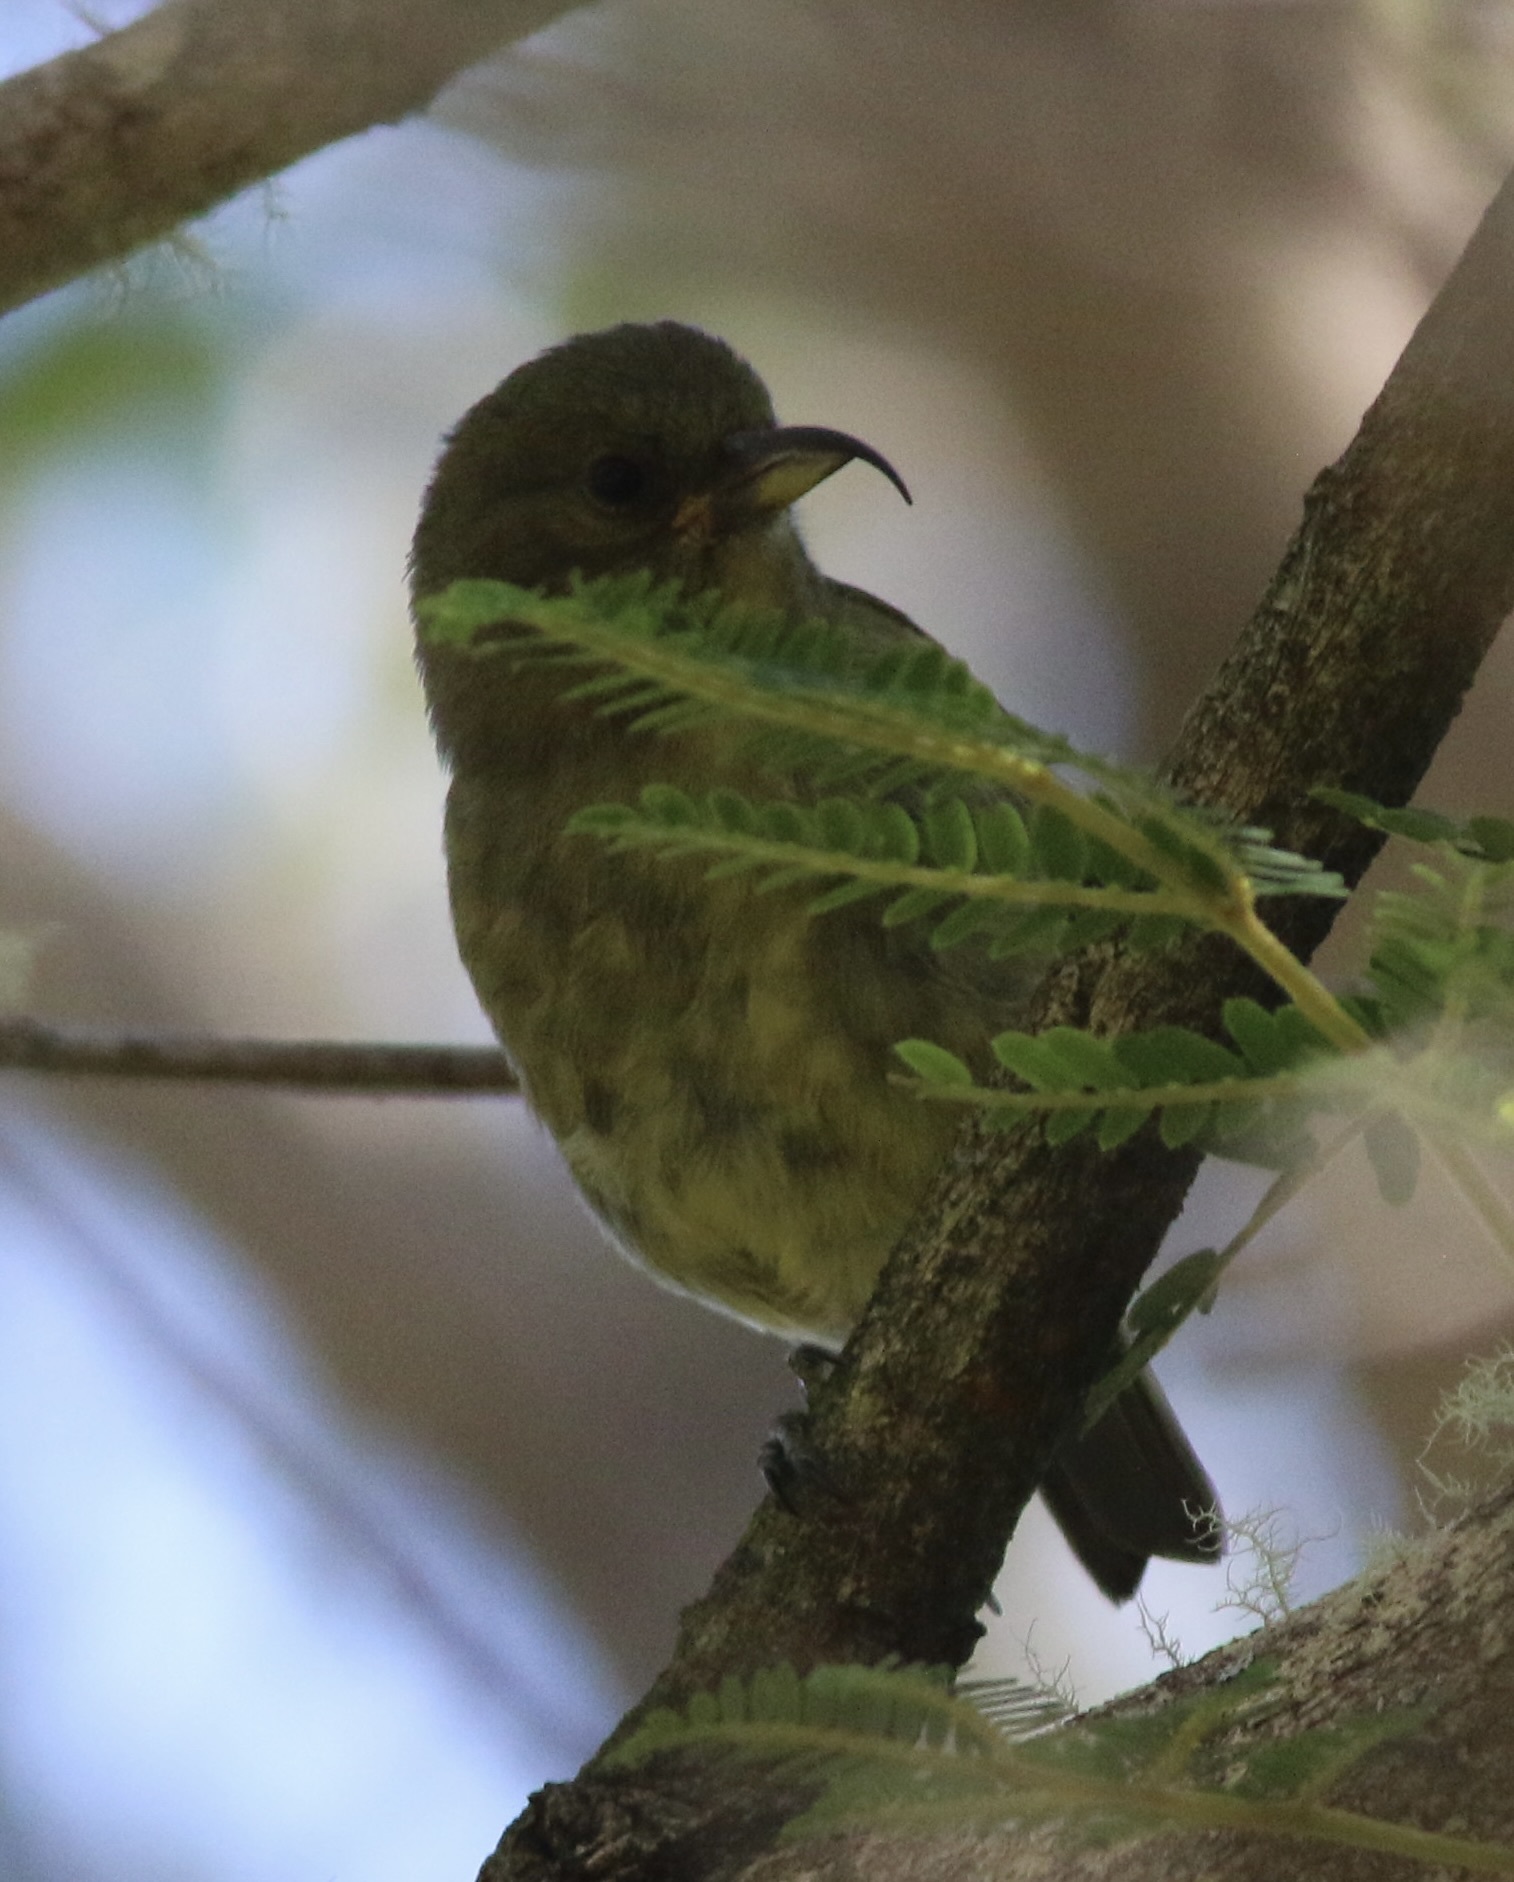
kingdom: Animalia
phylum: Chordata
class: Aves
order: Passeriformes
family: Fringillidae
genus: Hemignathus
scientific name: Hemignathus wilsoni
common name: Akiapolaau
